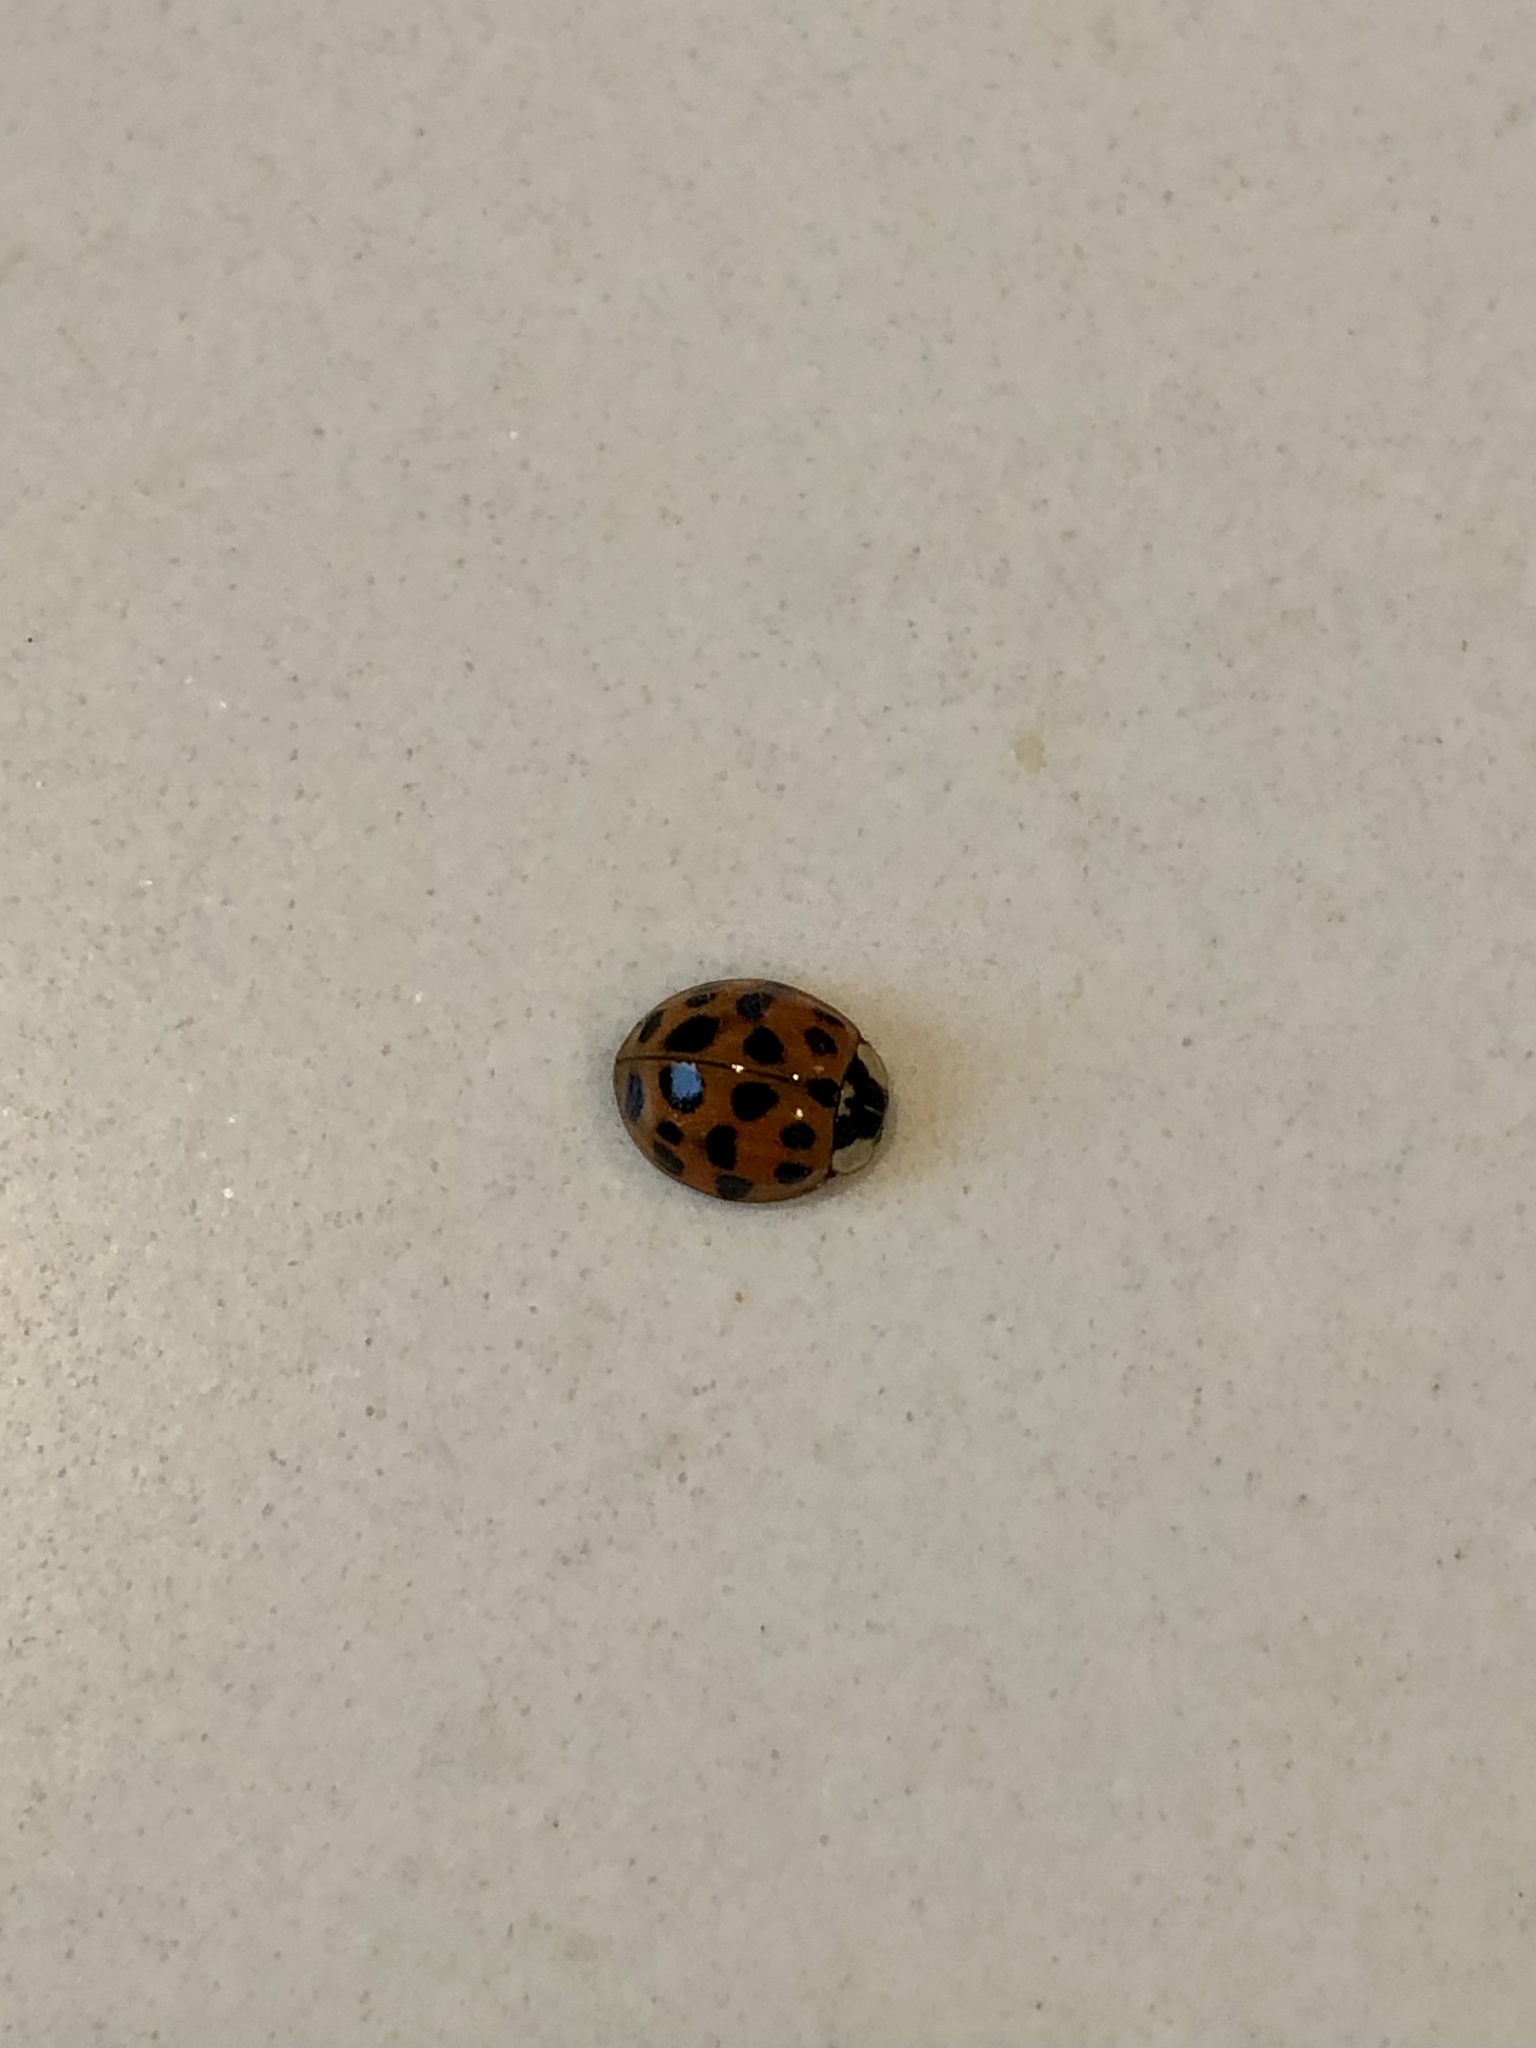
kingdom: Animalia
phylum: Arthropoda
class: Insecta
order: Coleoptera
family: Coccinellidae
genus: Harmonia
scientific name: Harmonia axyridis
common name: Harlequin ladybird
